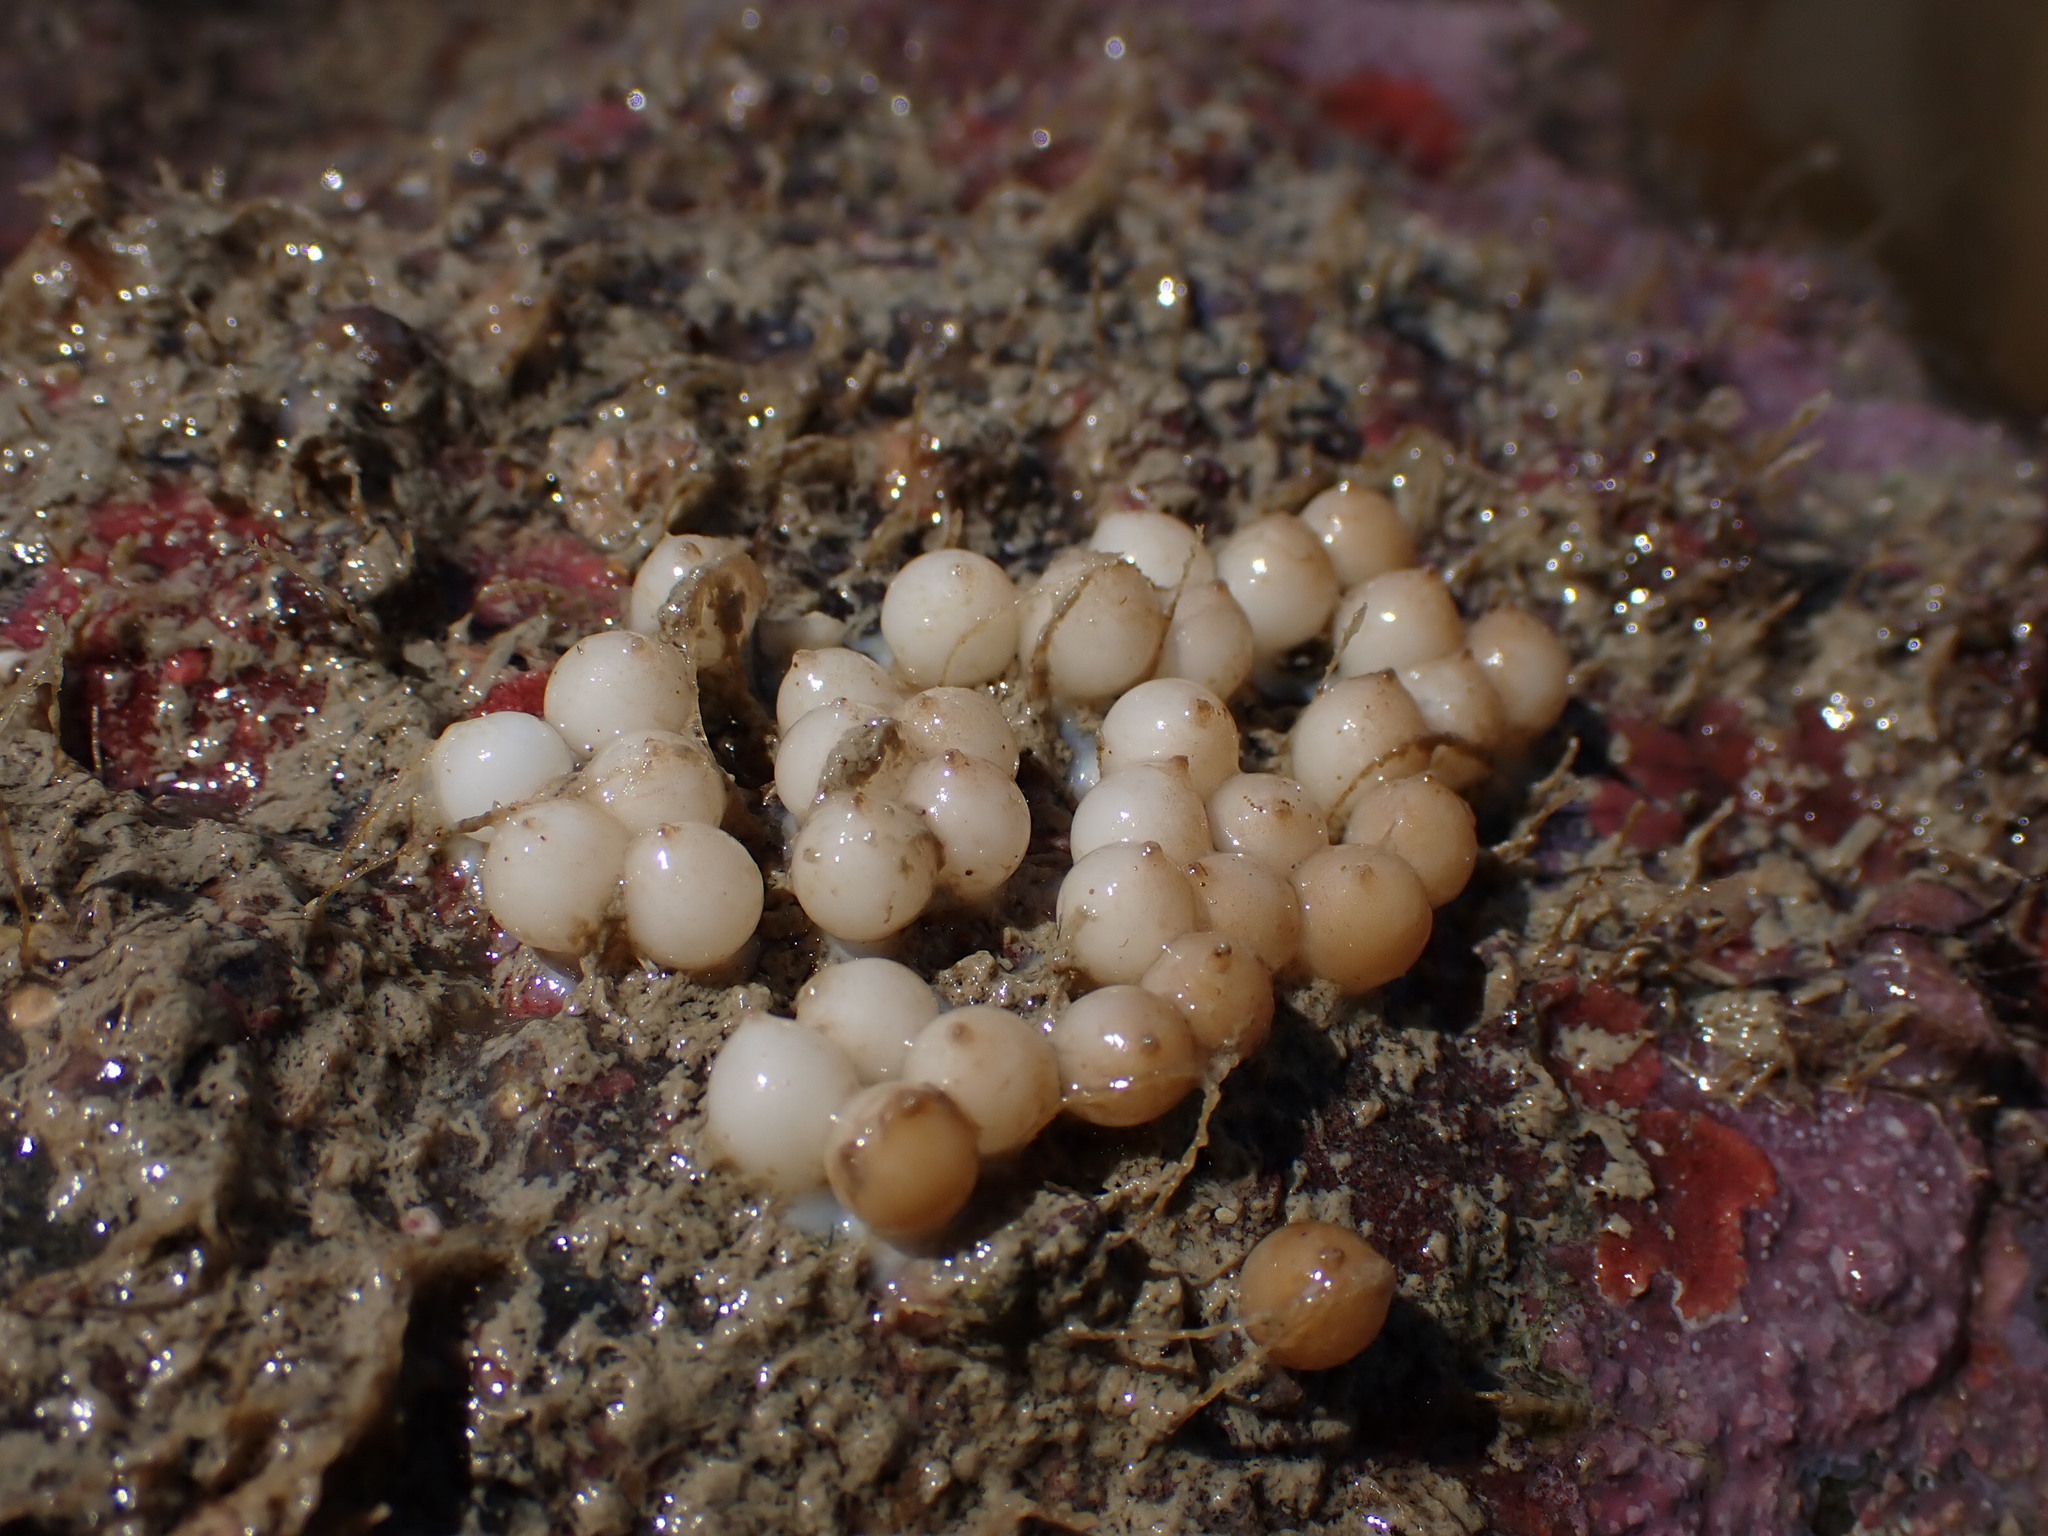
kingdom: Animalia
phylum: Mollusca
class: Cephalopoda
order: Sepiida
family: Sepiadariidae
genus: Sepioloidea
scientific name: Sepioloidea
